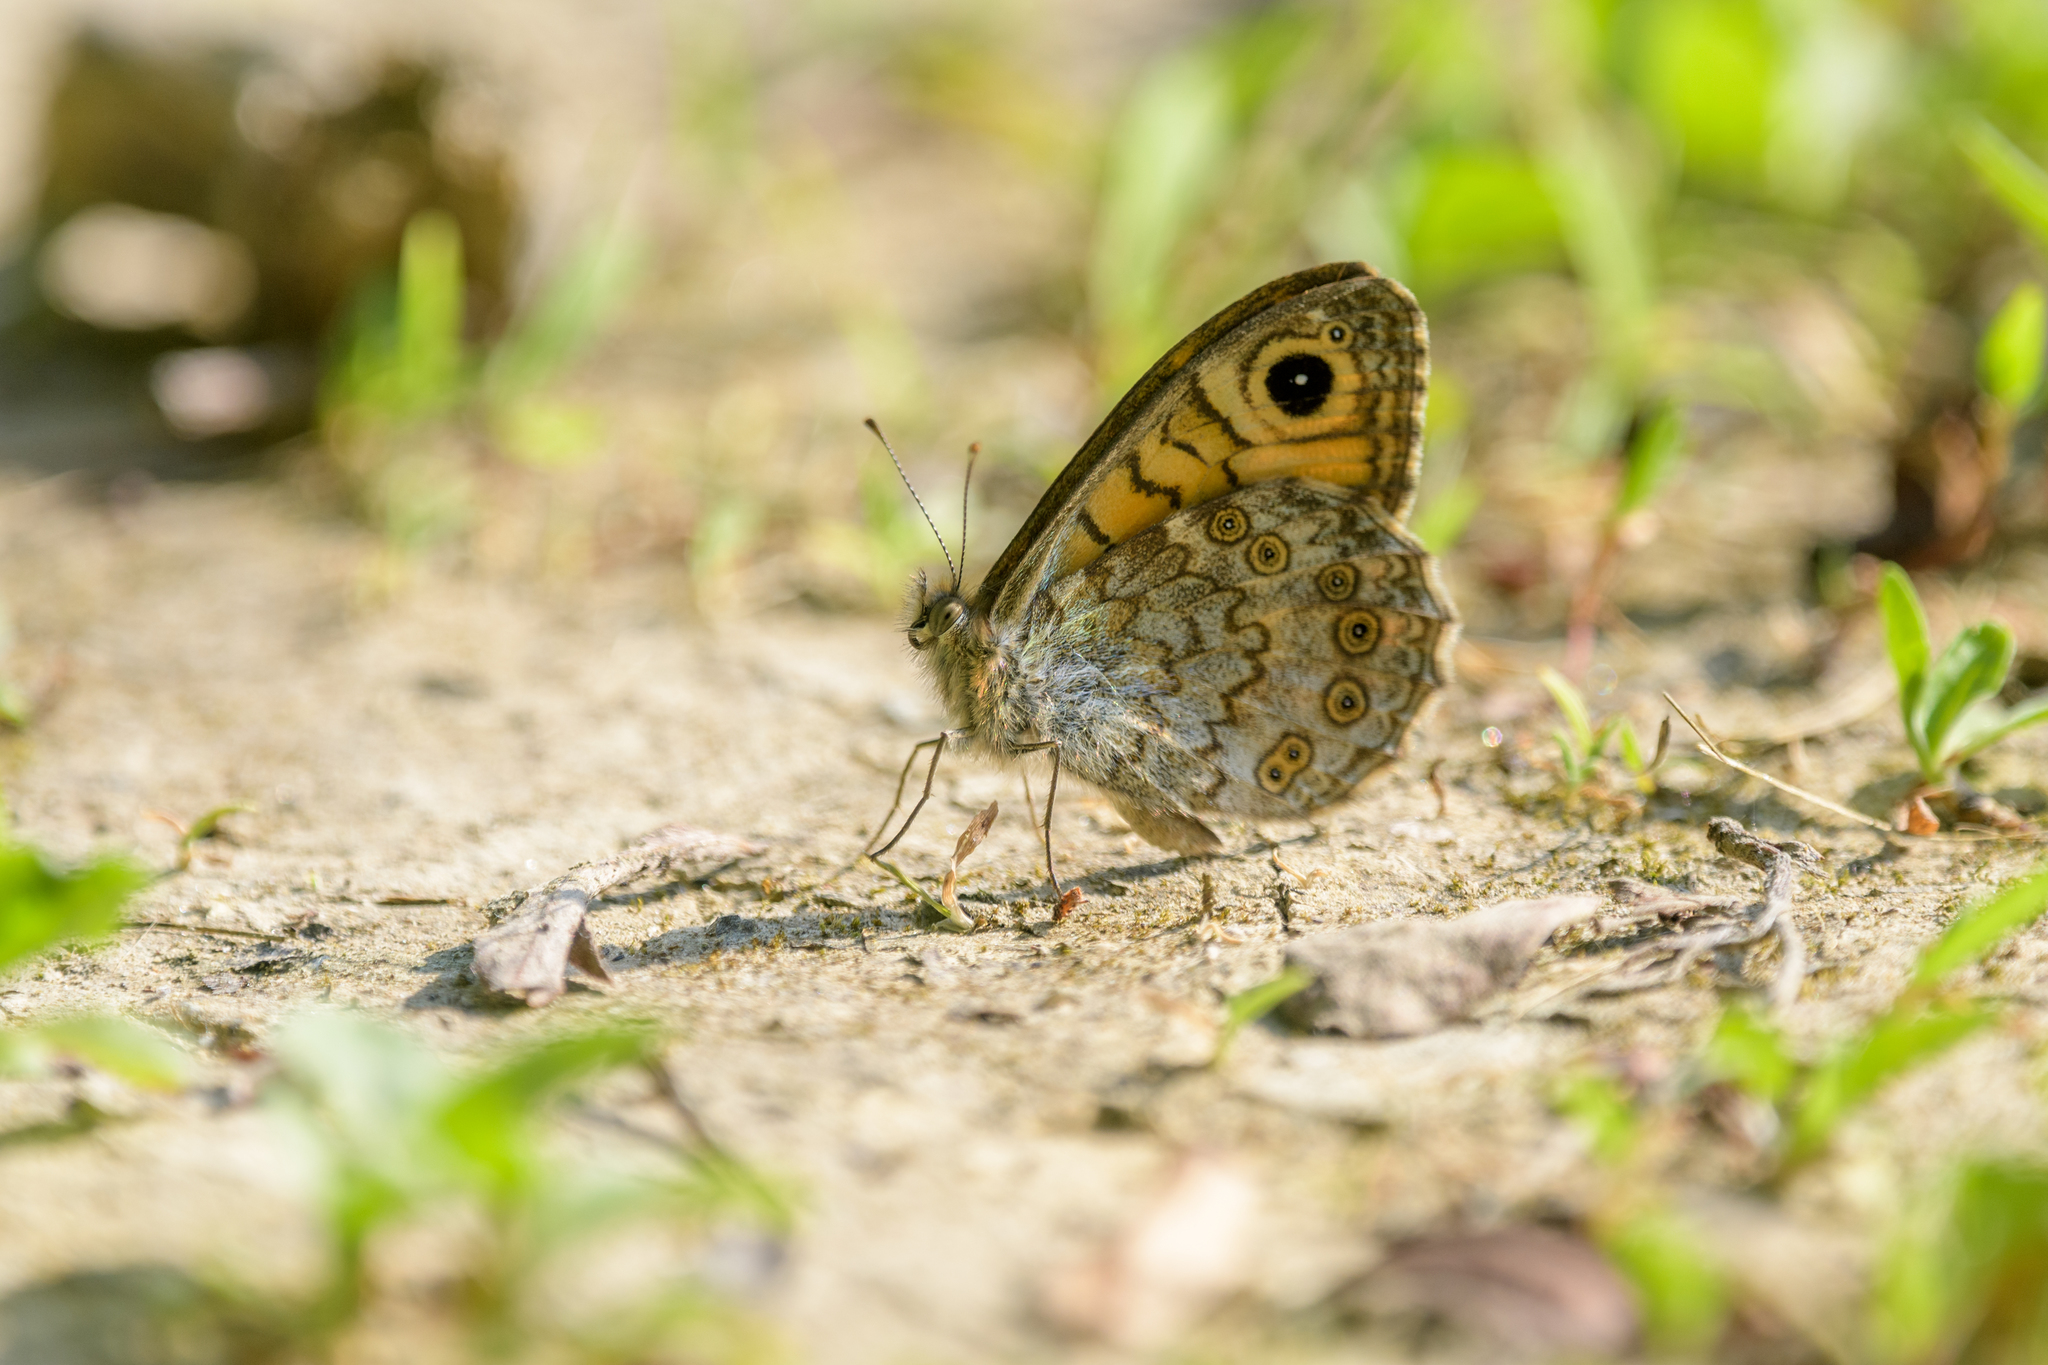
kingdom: Animalia
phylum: Arthropoda
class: Insecta
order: Lepidoptera
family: Nymphalidae
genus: Pararge
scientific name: Pararge Lasiommata megera
